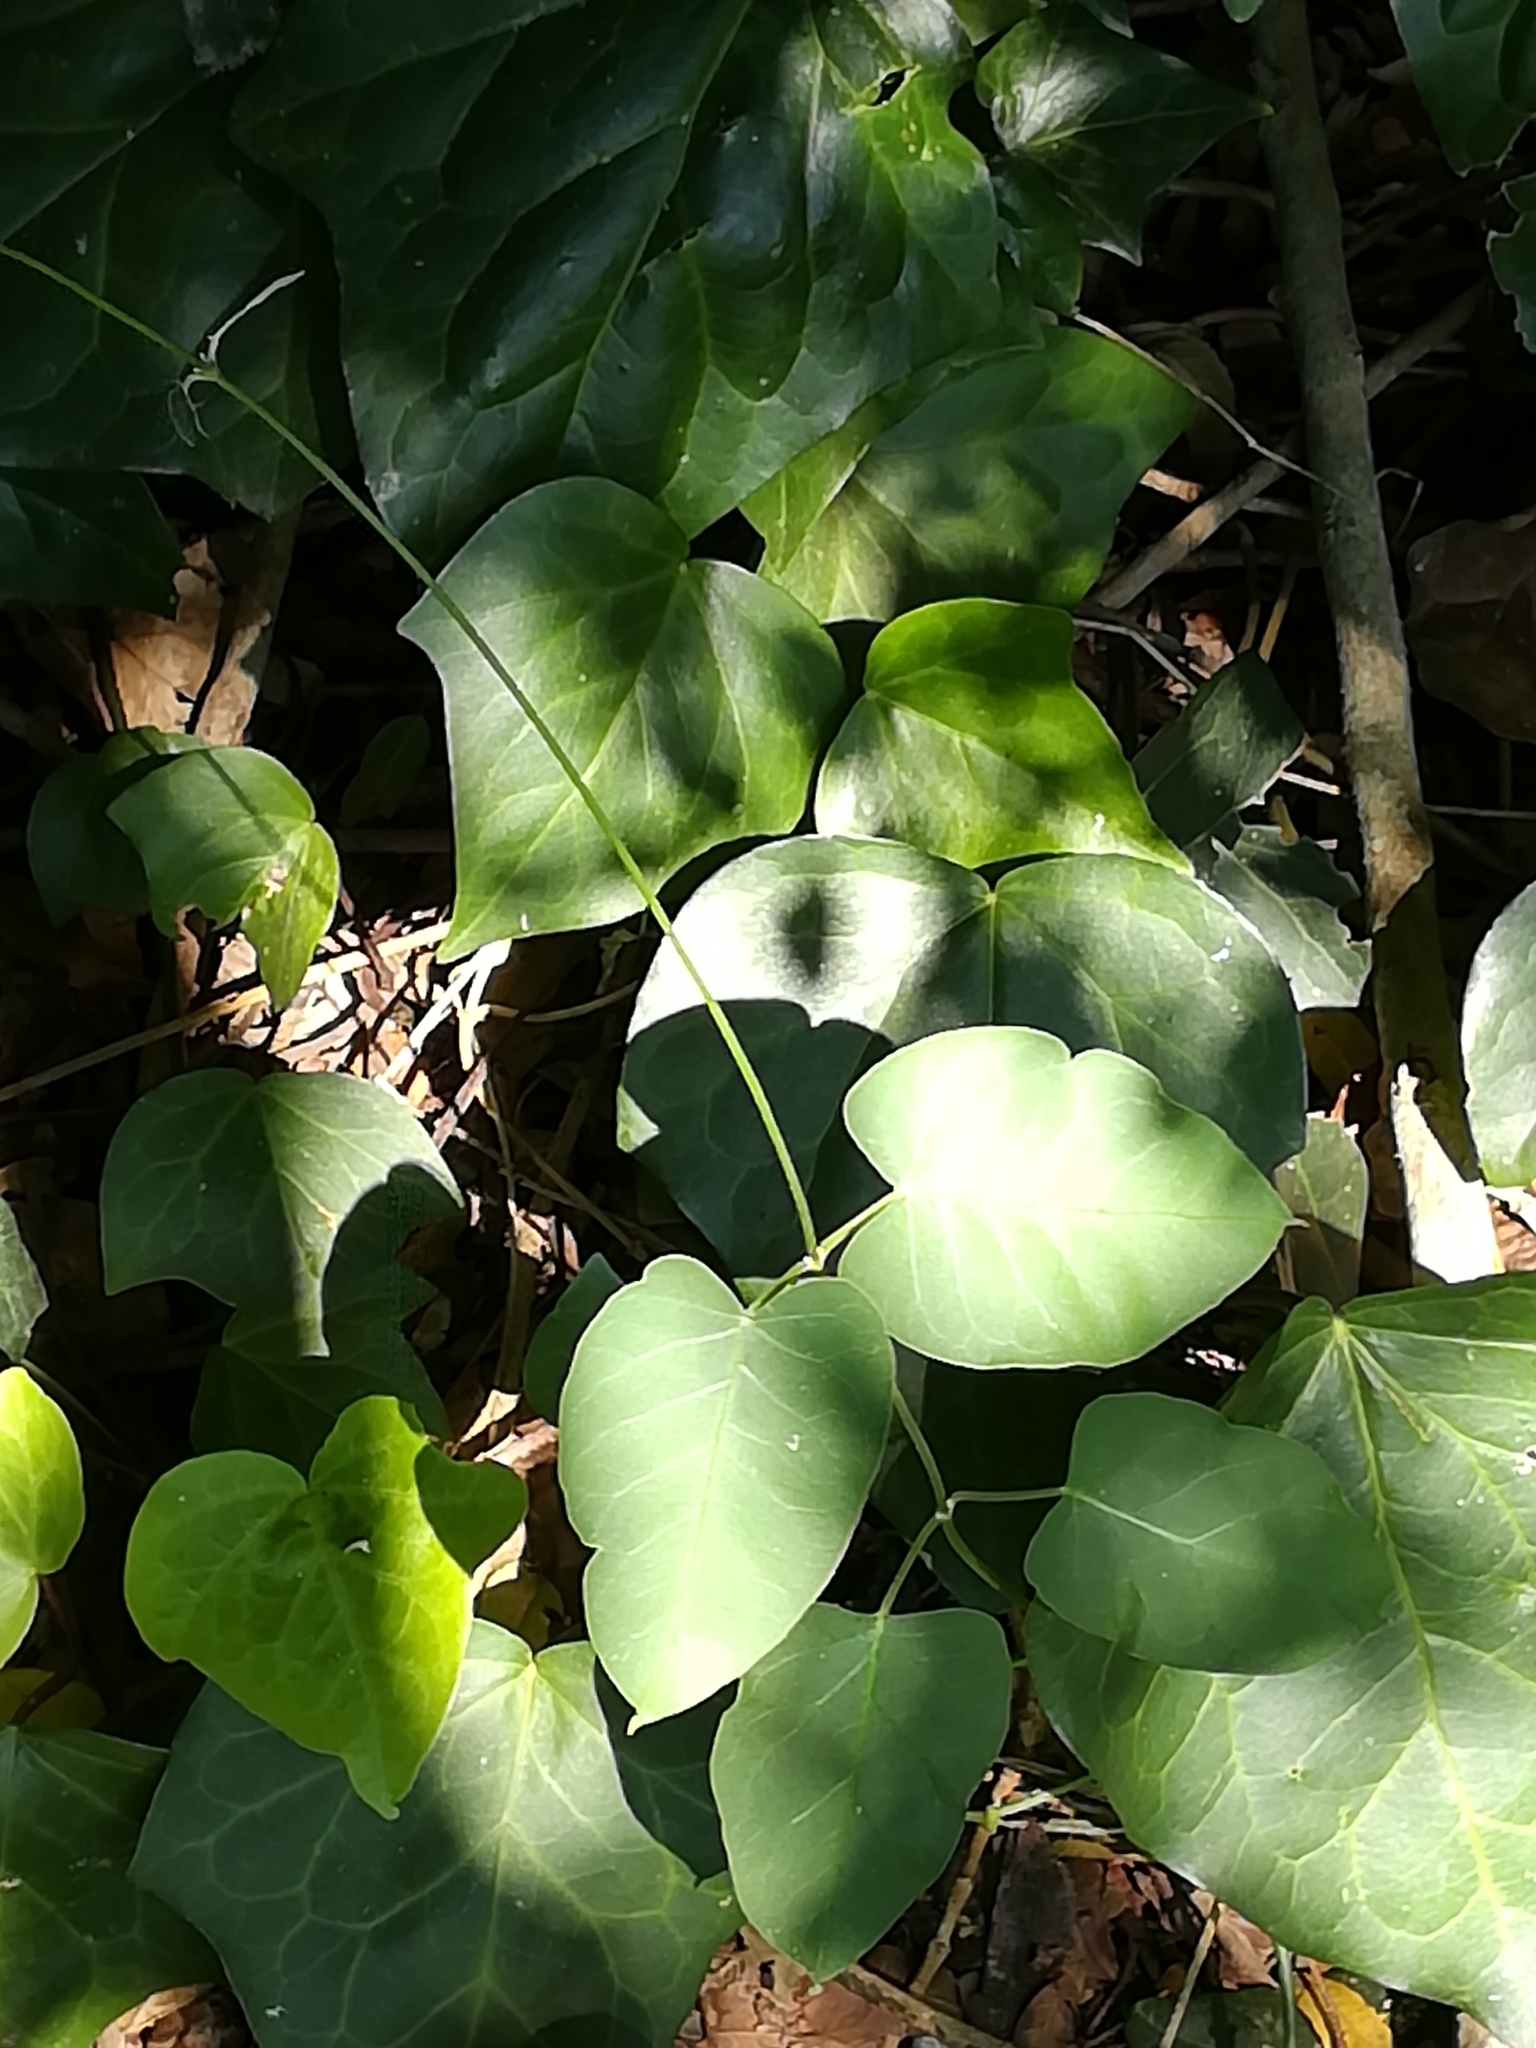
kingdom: Plantae
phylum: Tracheophyta
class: Magnoliopsida
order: Gentianales
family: Apocynaceae
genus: Araujia
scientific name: Araujia sericifera
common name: White bladderflower
